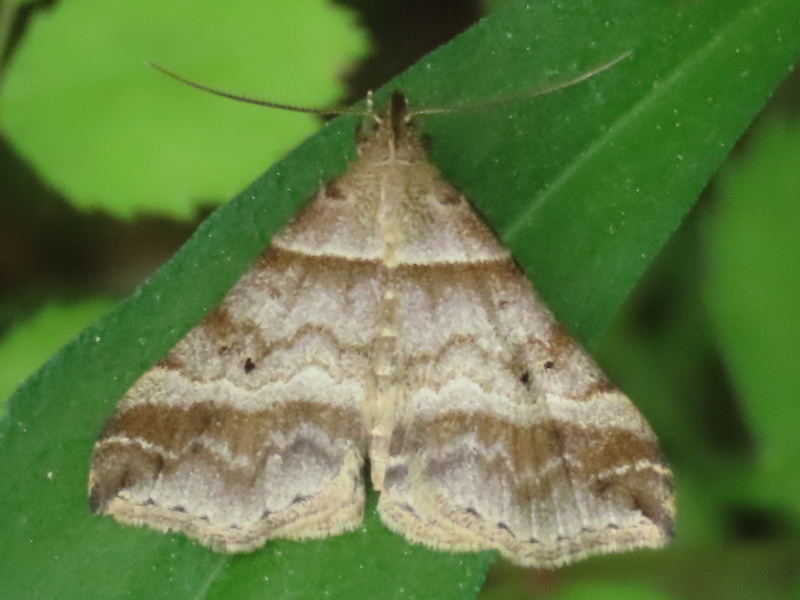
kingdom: Animalia
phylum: Arthropoda
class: Insecta
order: Lepidoptera
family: Erebidae
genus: Phaeolita
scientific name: Phaeolita pyramusalis
